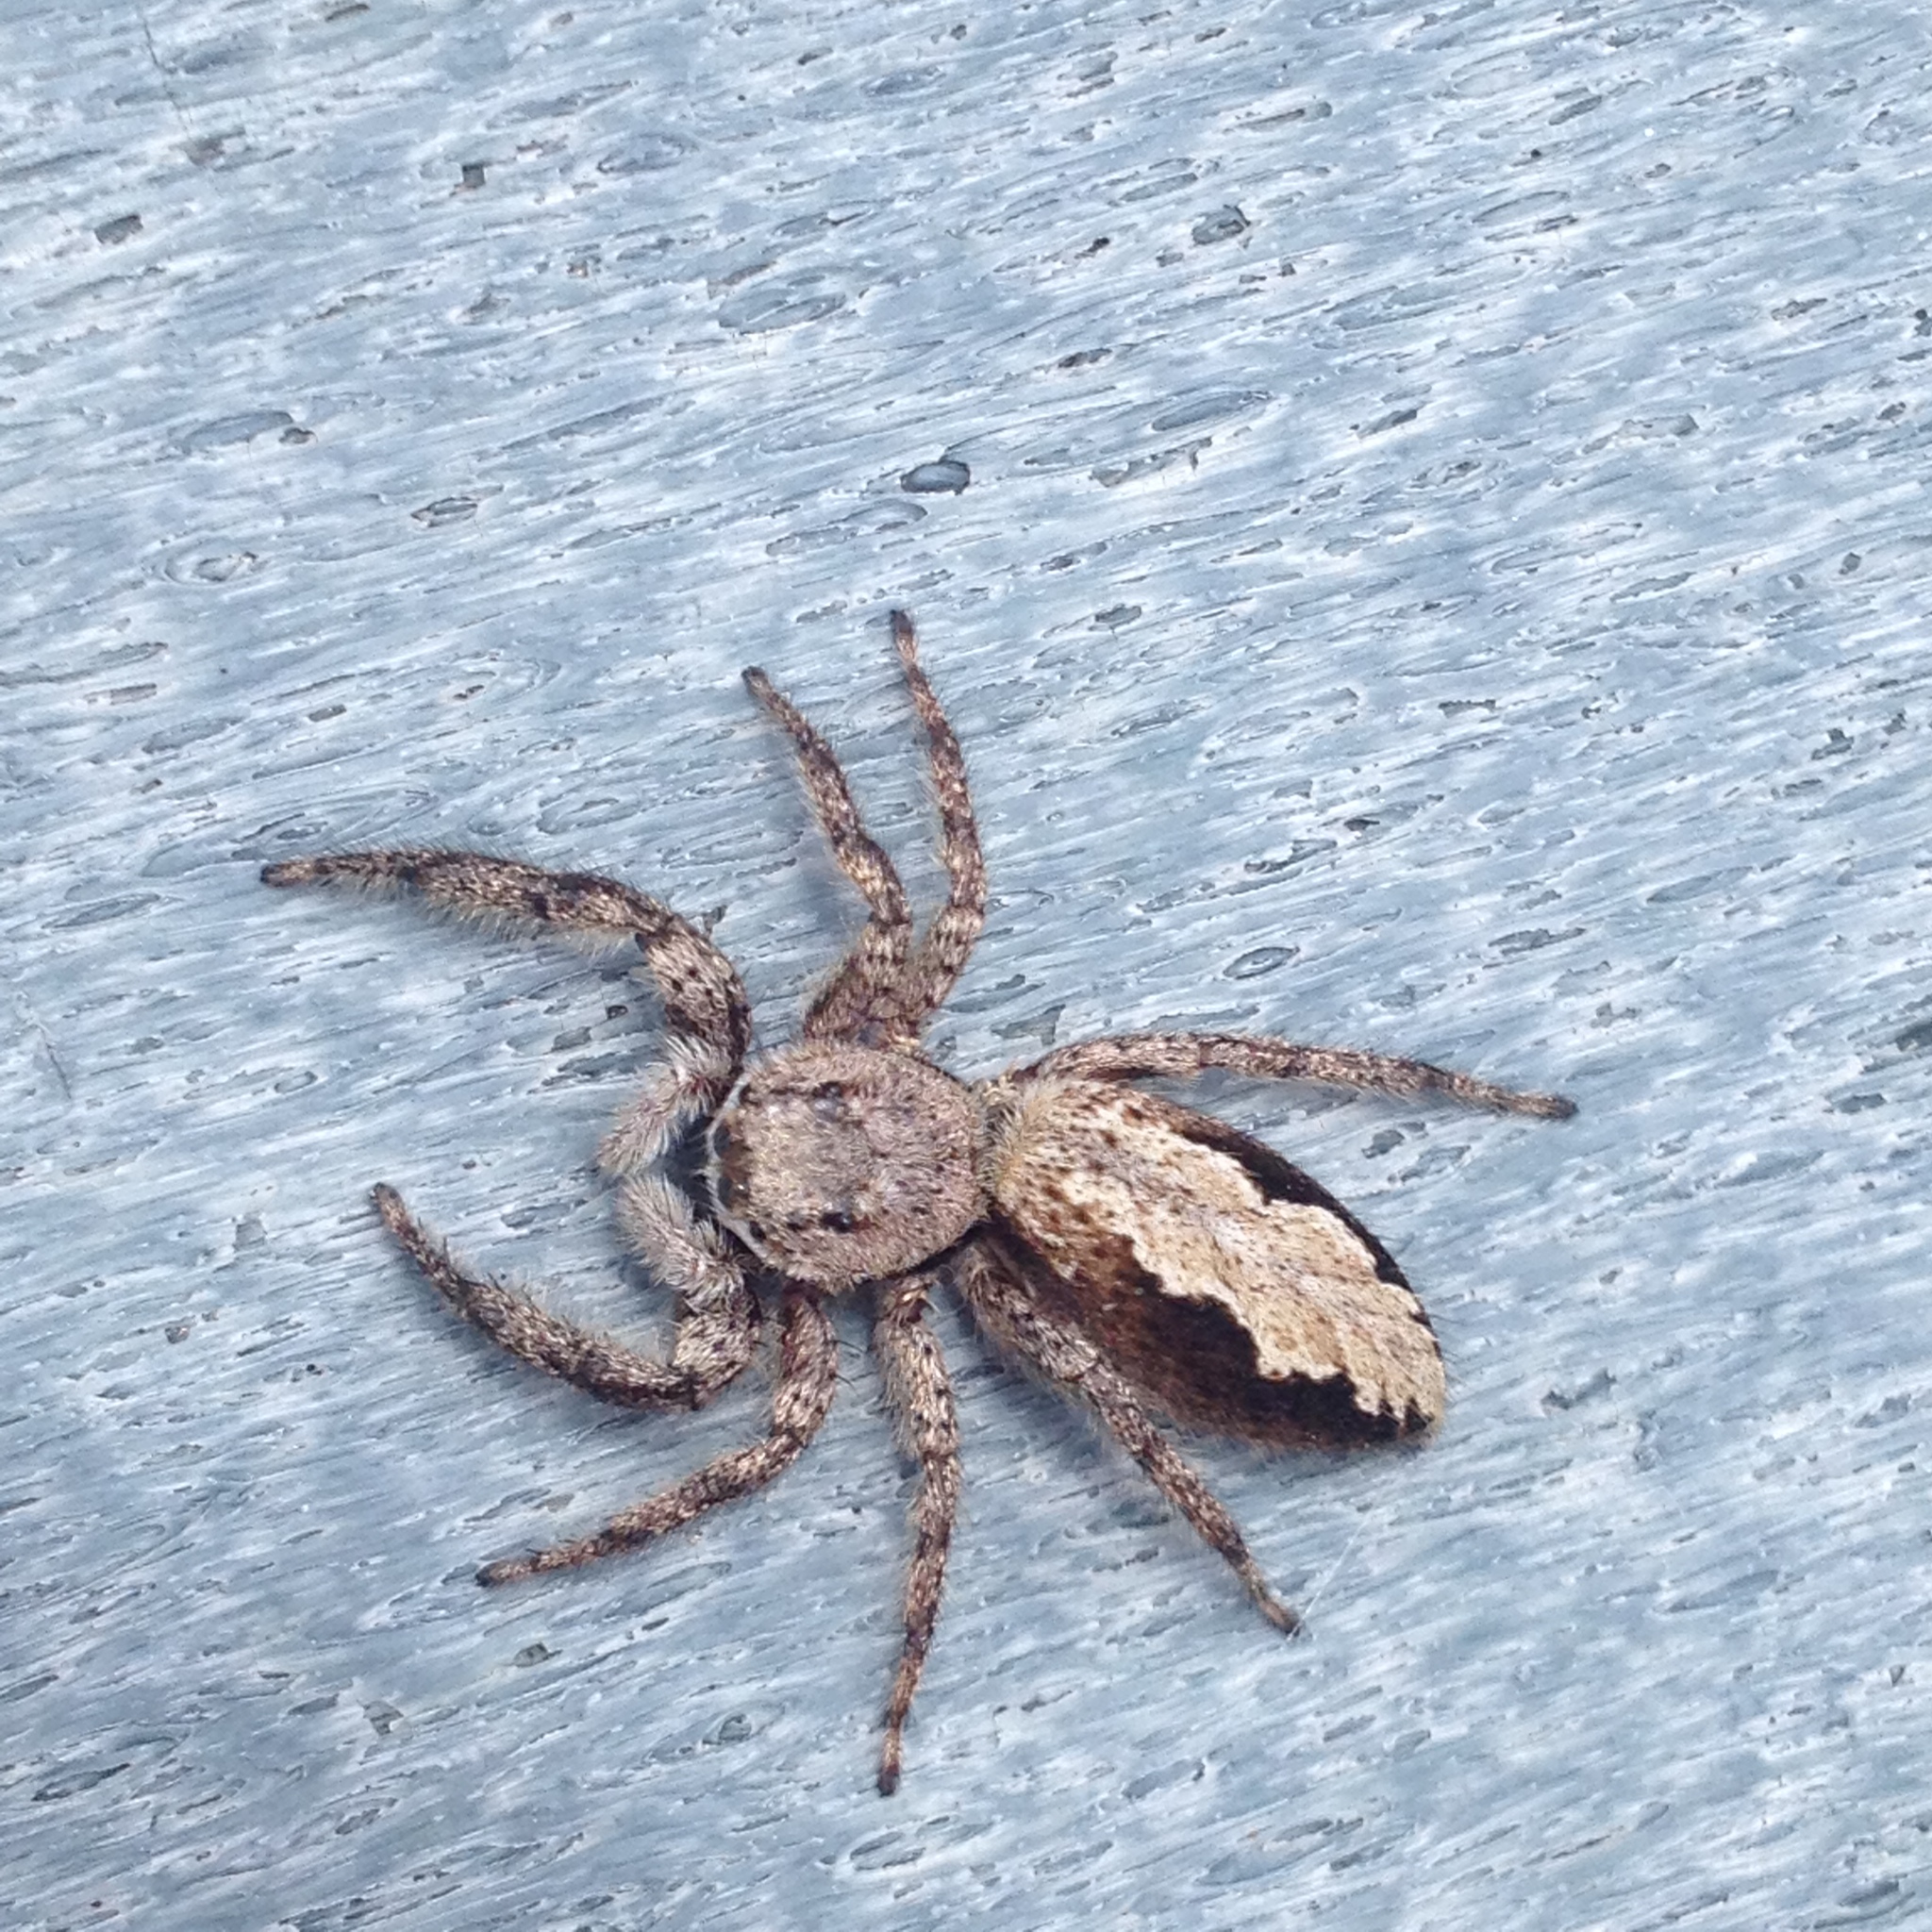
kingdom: Animalia
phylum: Arthropoda
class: Arachnida
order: Araneae
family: Salticidae
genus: Platycryptus
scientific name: Platycryptus undatus
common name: Tan jumping spider
